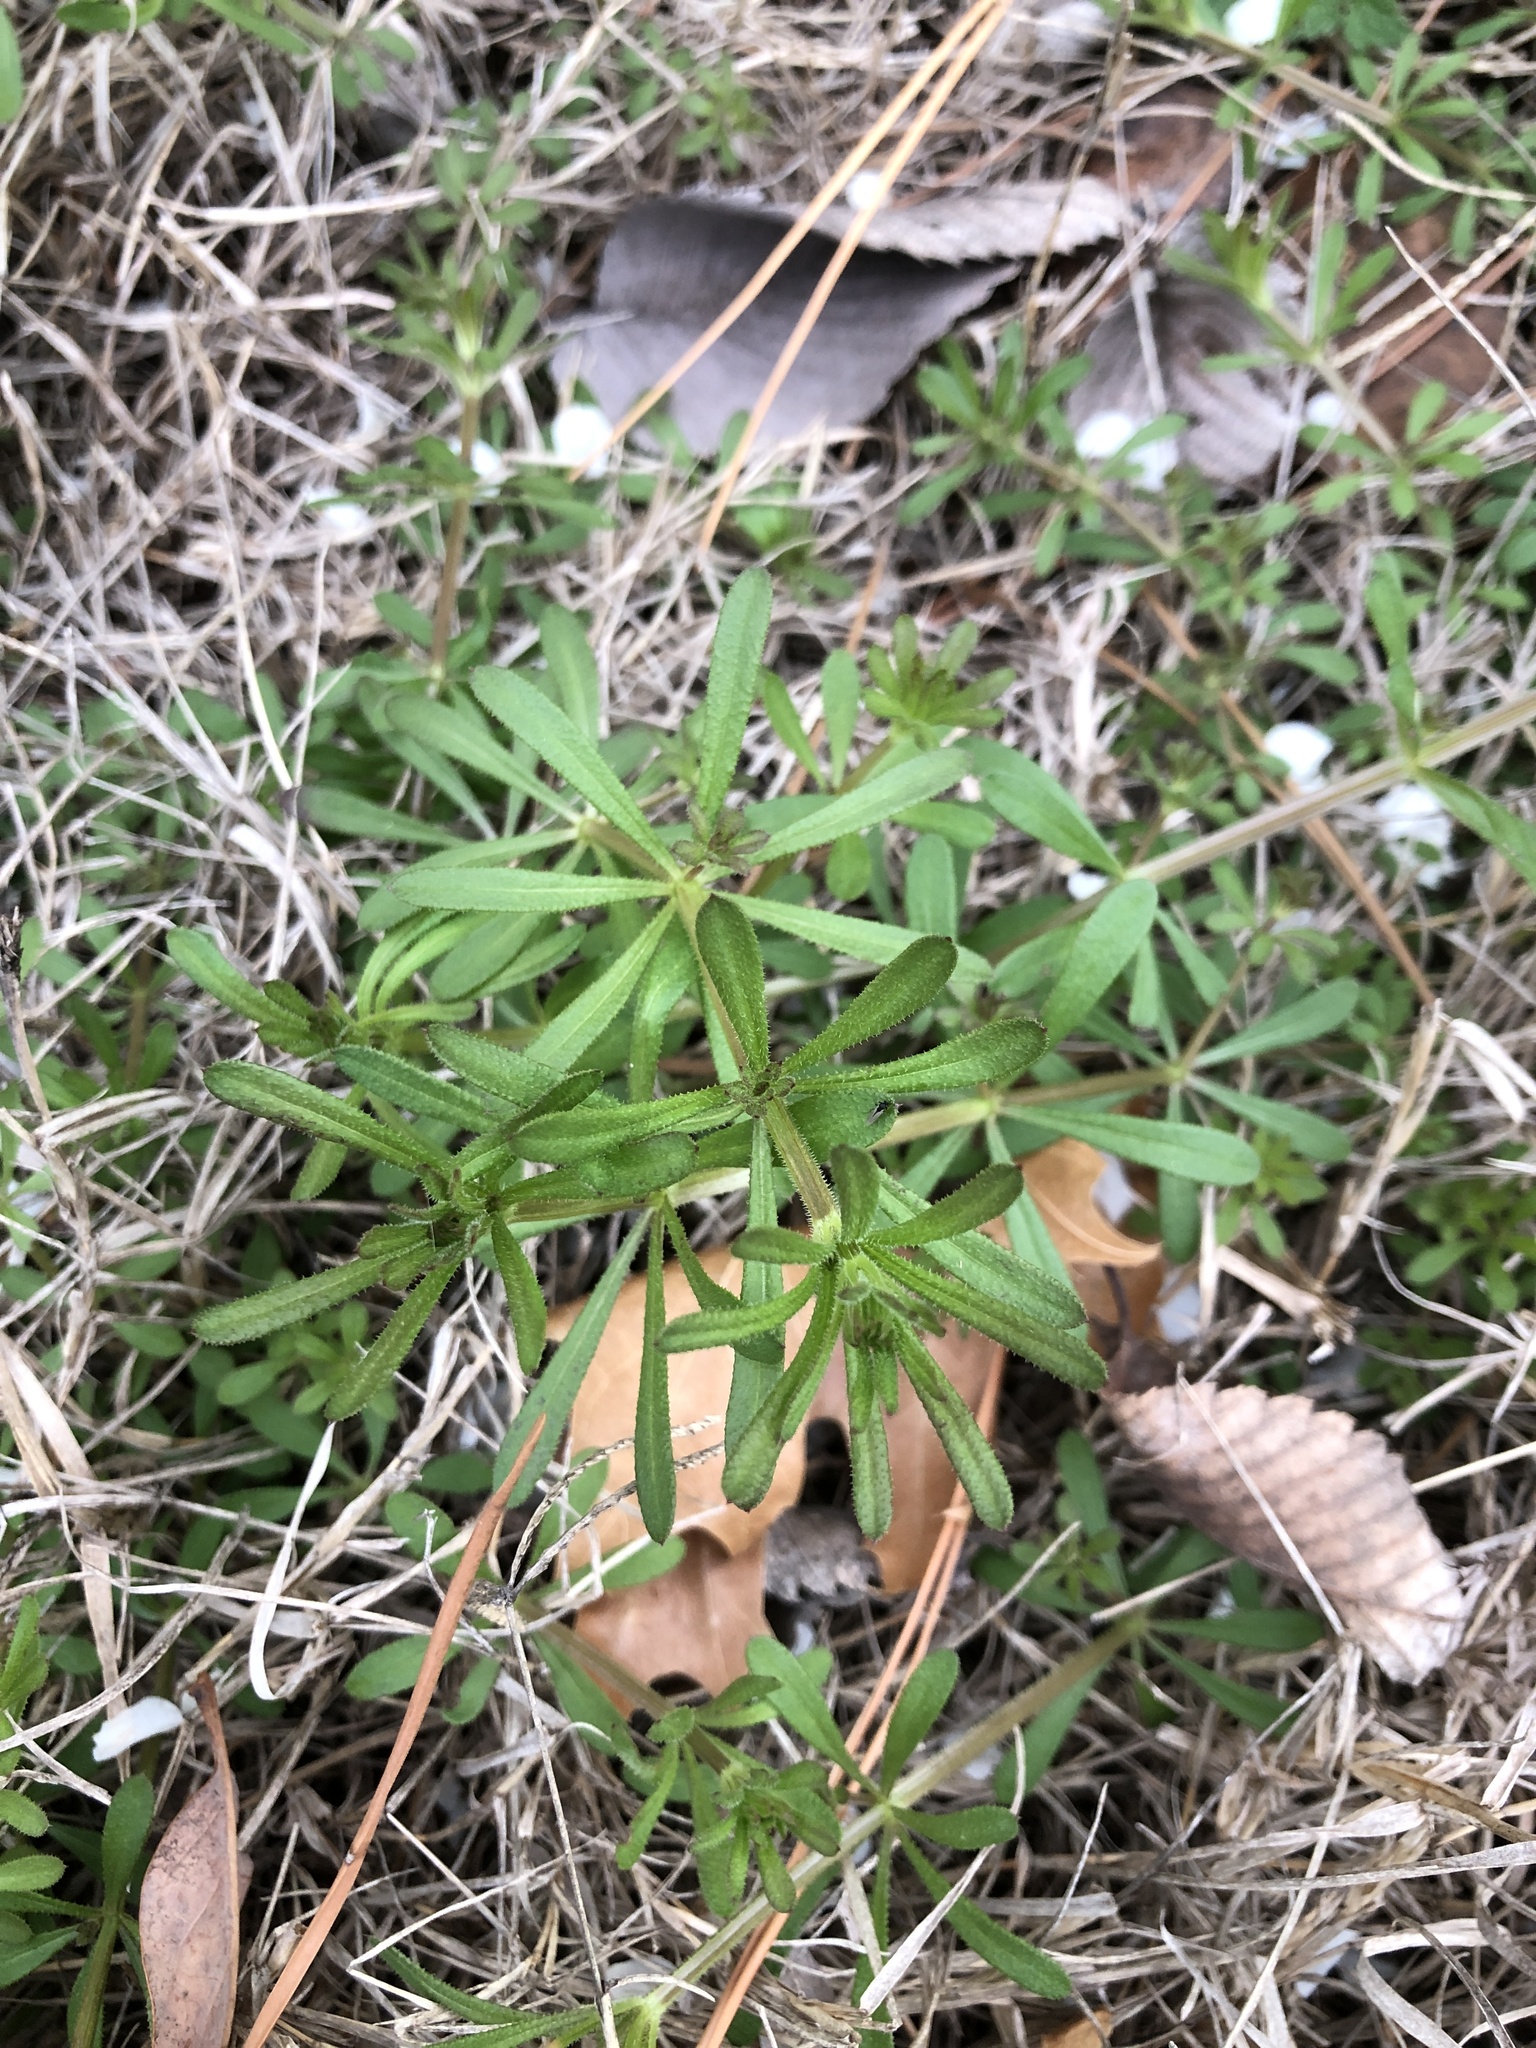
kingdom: Plantae
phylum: Tracheophyta
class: Magnoliopsida
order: Gentianales
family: Rubiaceae
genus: Galium
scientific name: Galium aparine
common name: Cleavers
